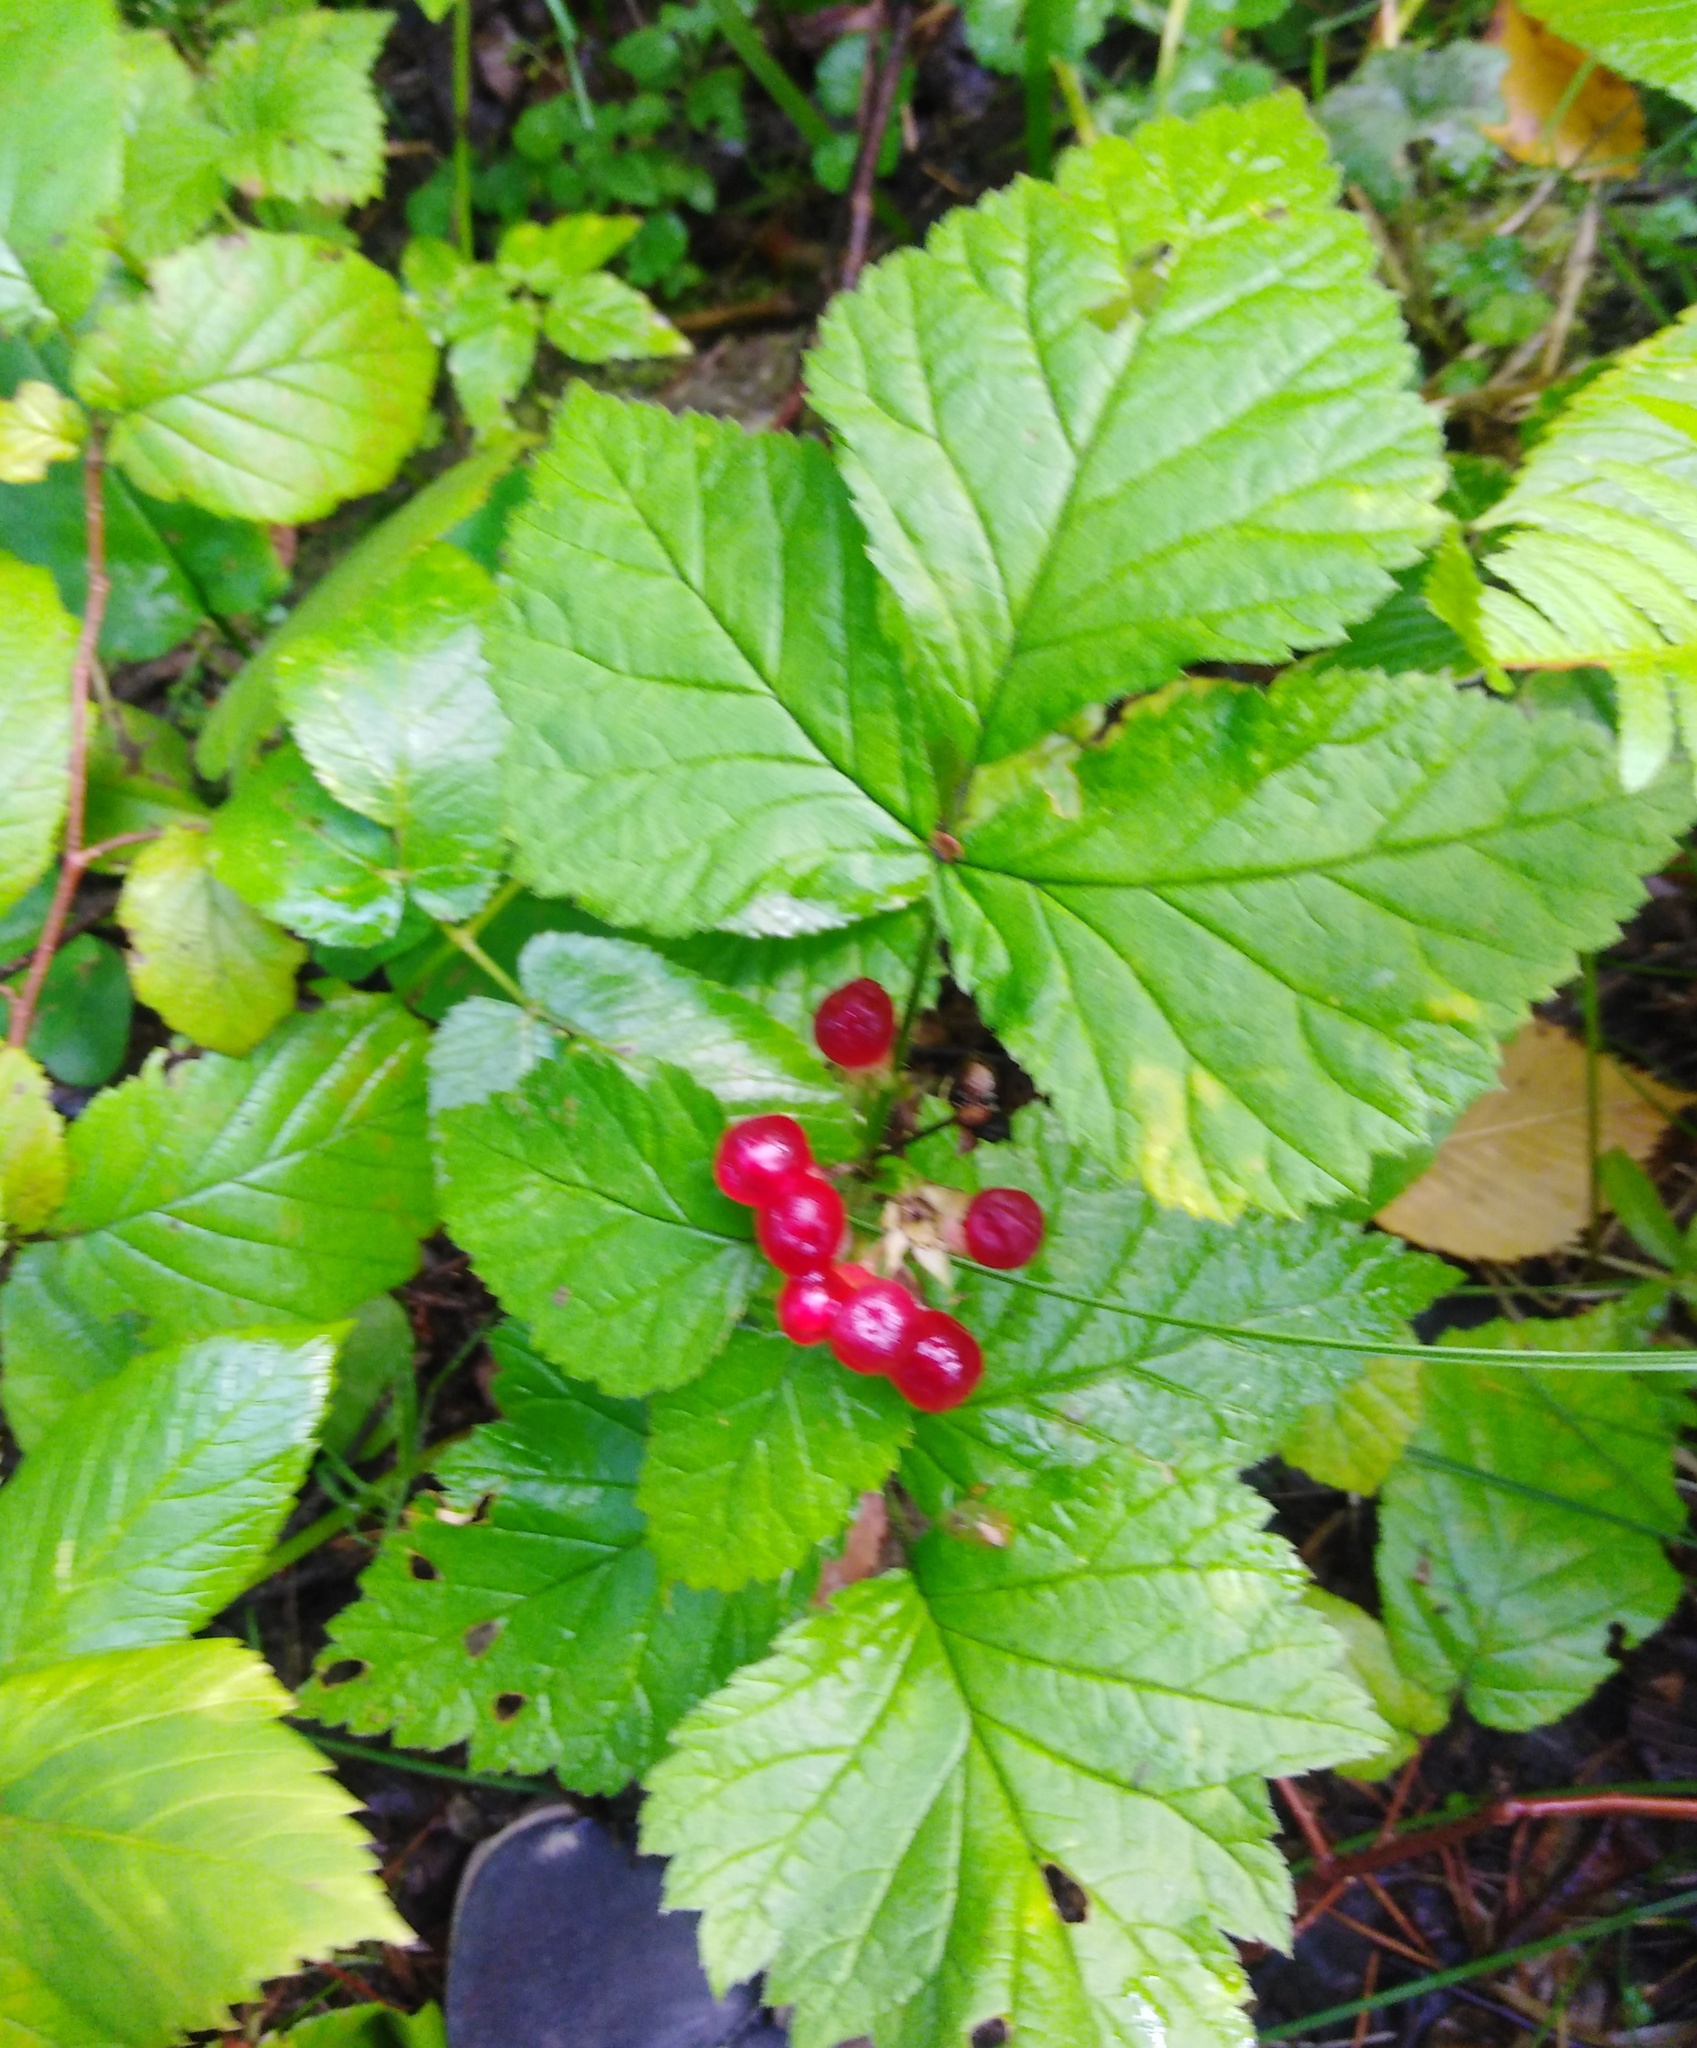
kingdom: Plantae
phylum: Tracheophyta
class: Magnoliopsida
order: Rosales
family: Rosaceae
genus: Rubus
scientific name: Rubus saxatilis
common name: Stone bramble
